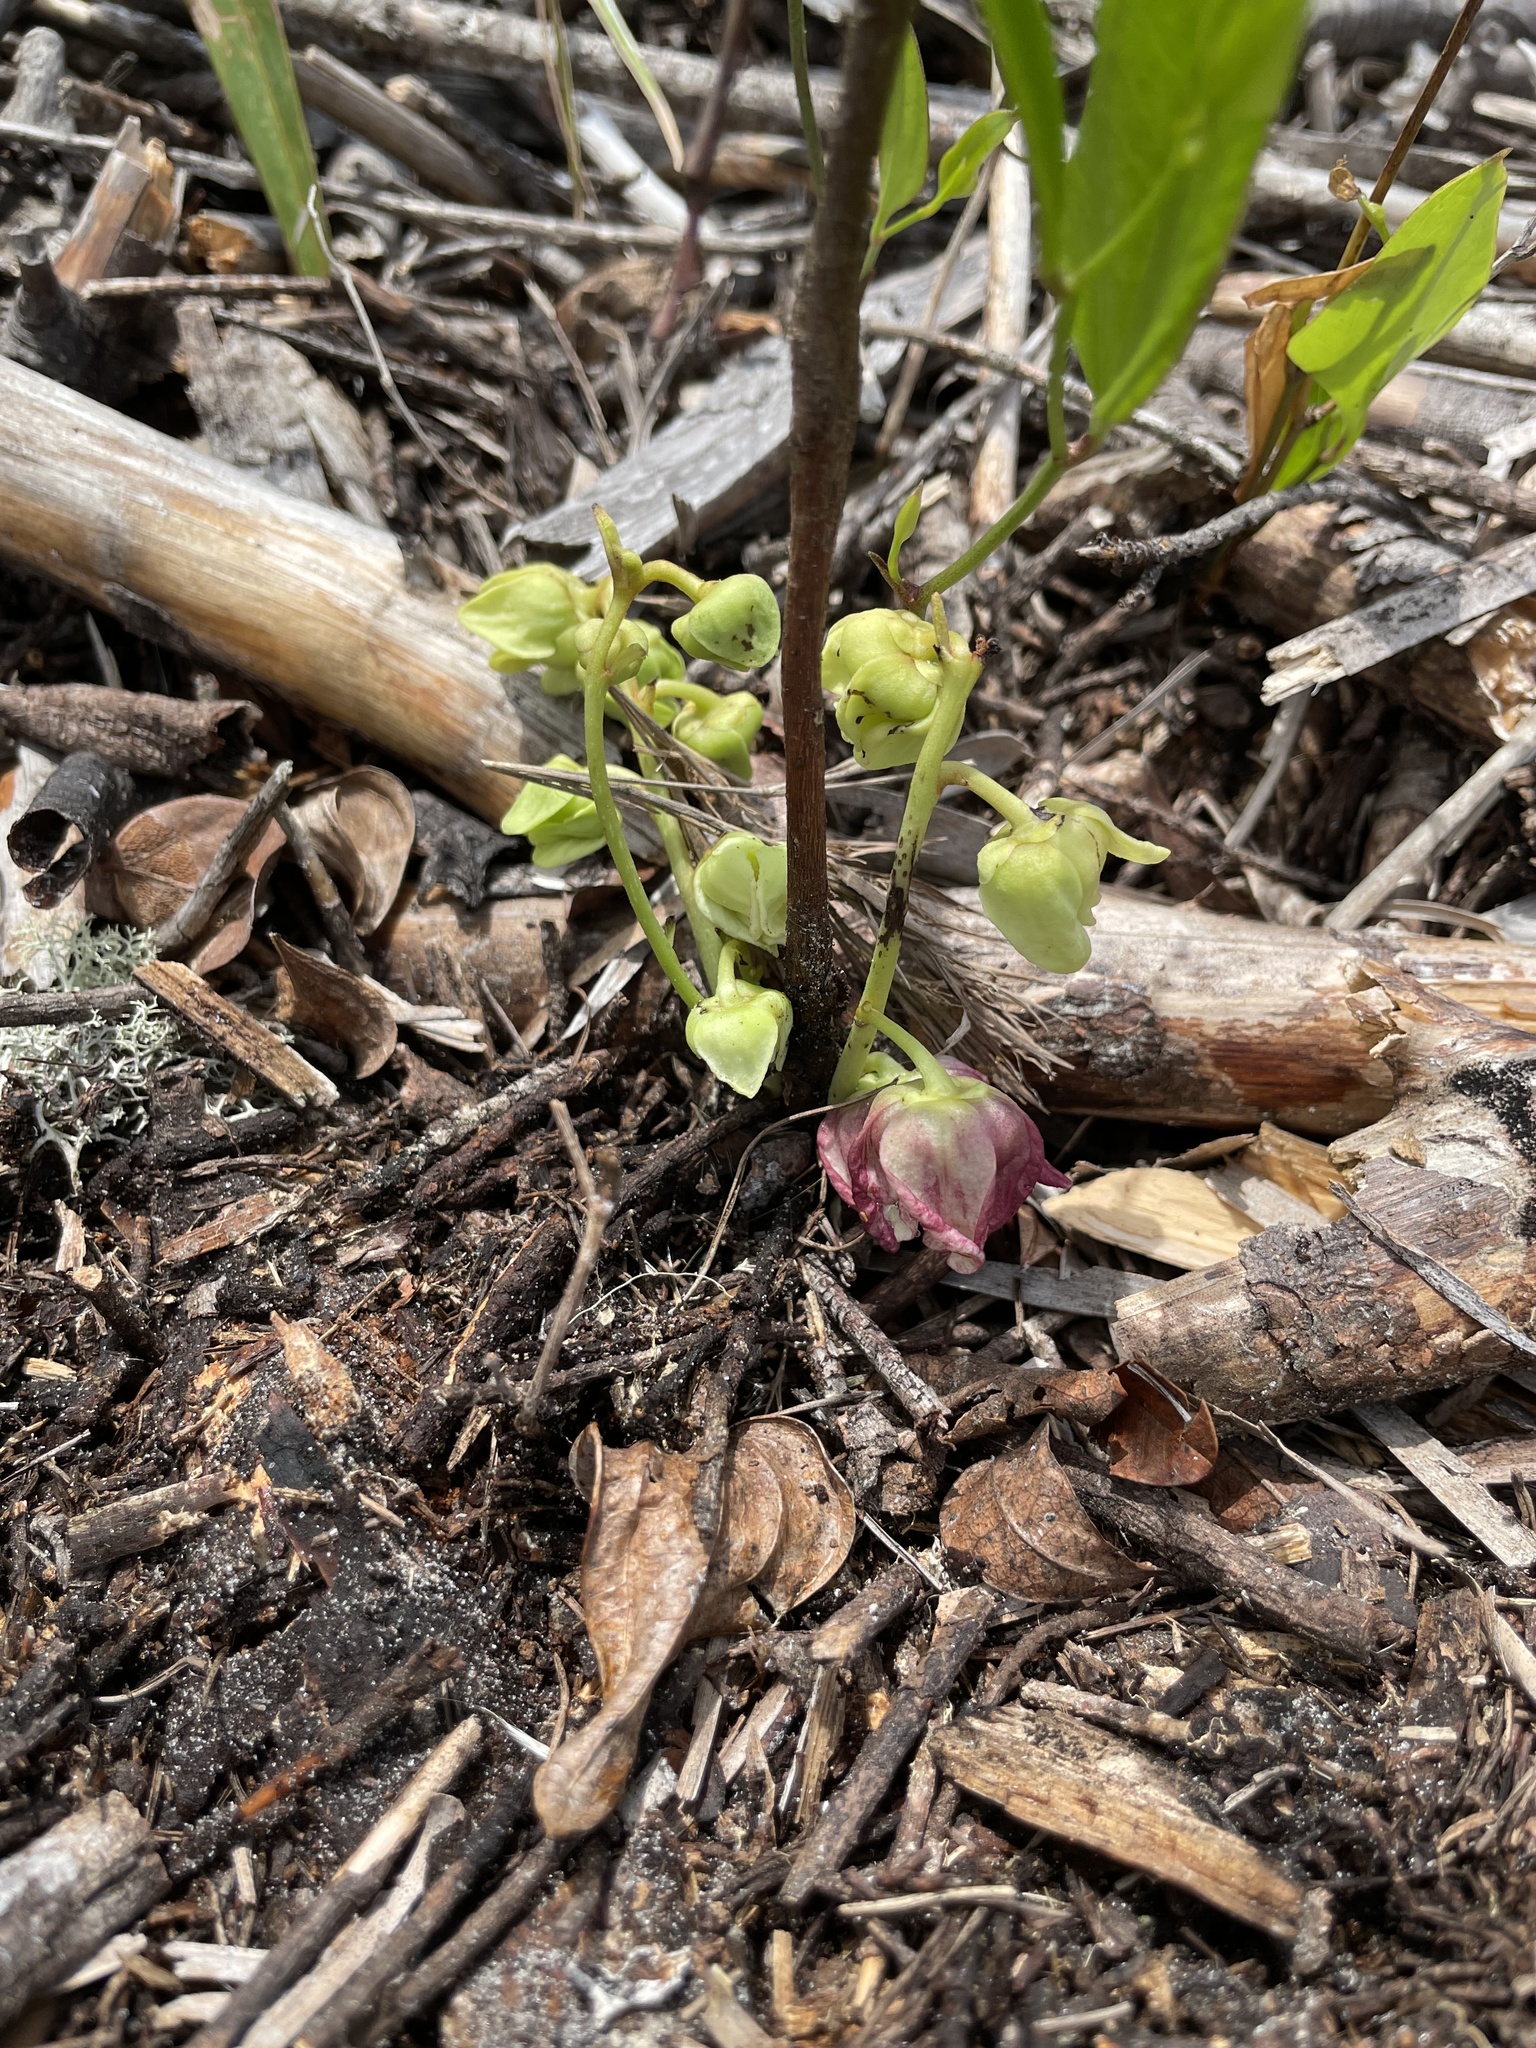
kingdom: Plantae
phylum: Tracheophyta
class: Magnoliopsida
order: Magnoliales
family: Annonaceae
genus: Asimina
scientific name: Asimina pygmaea
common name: Dwarf pawpaw
